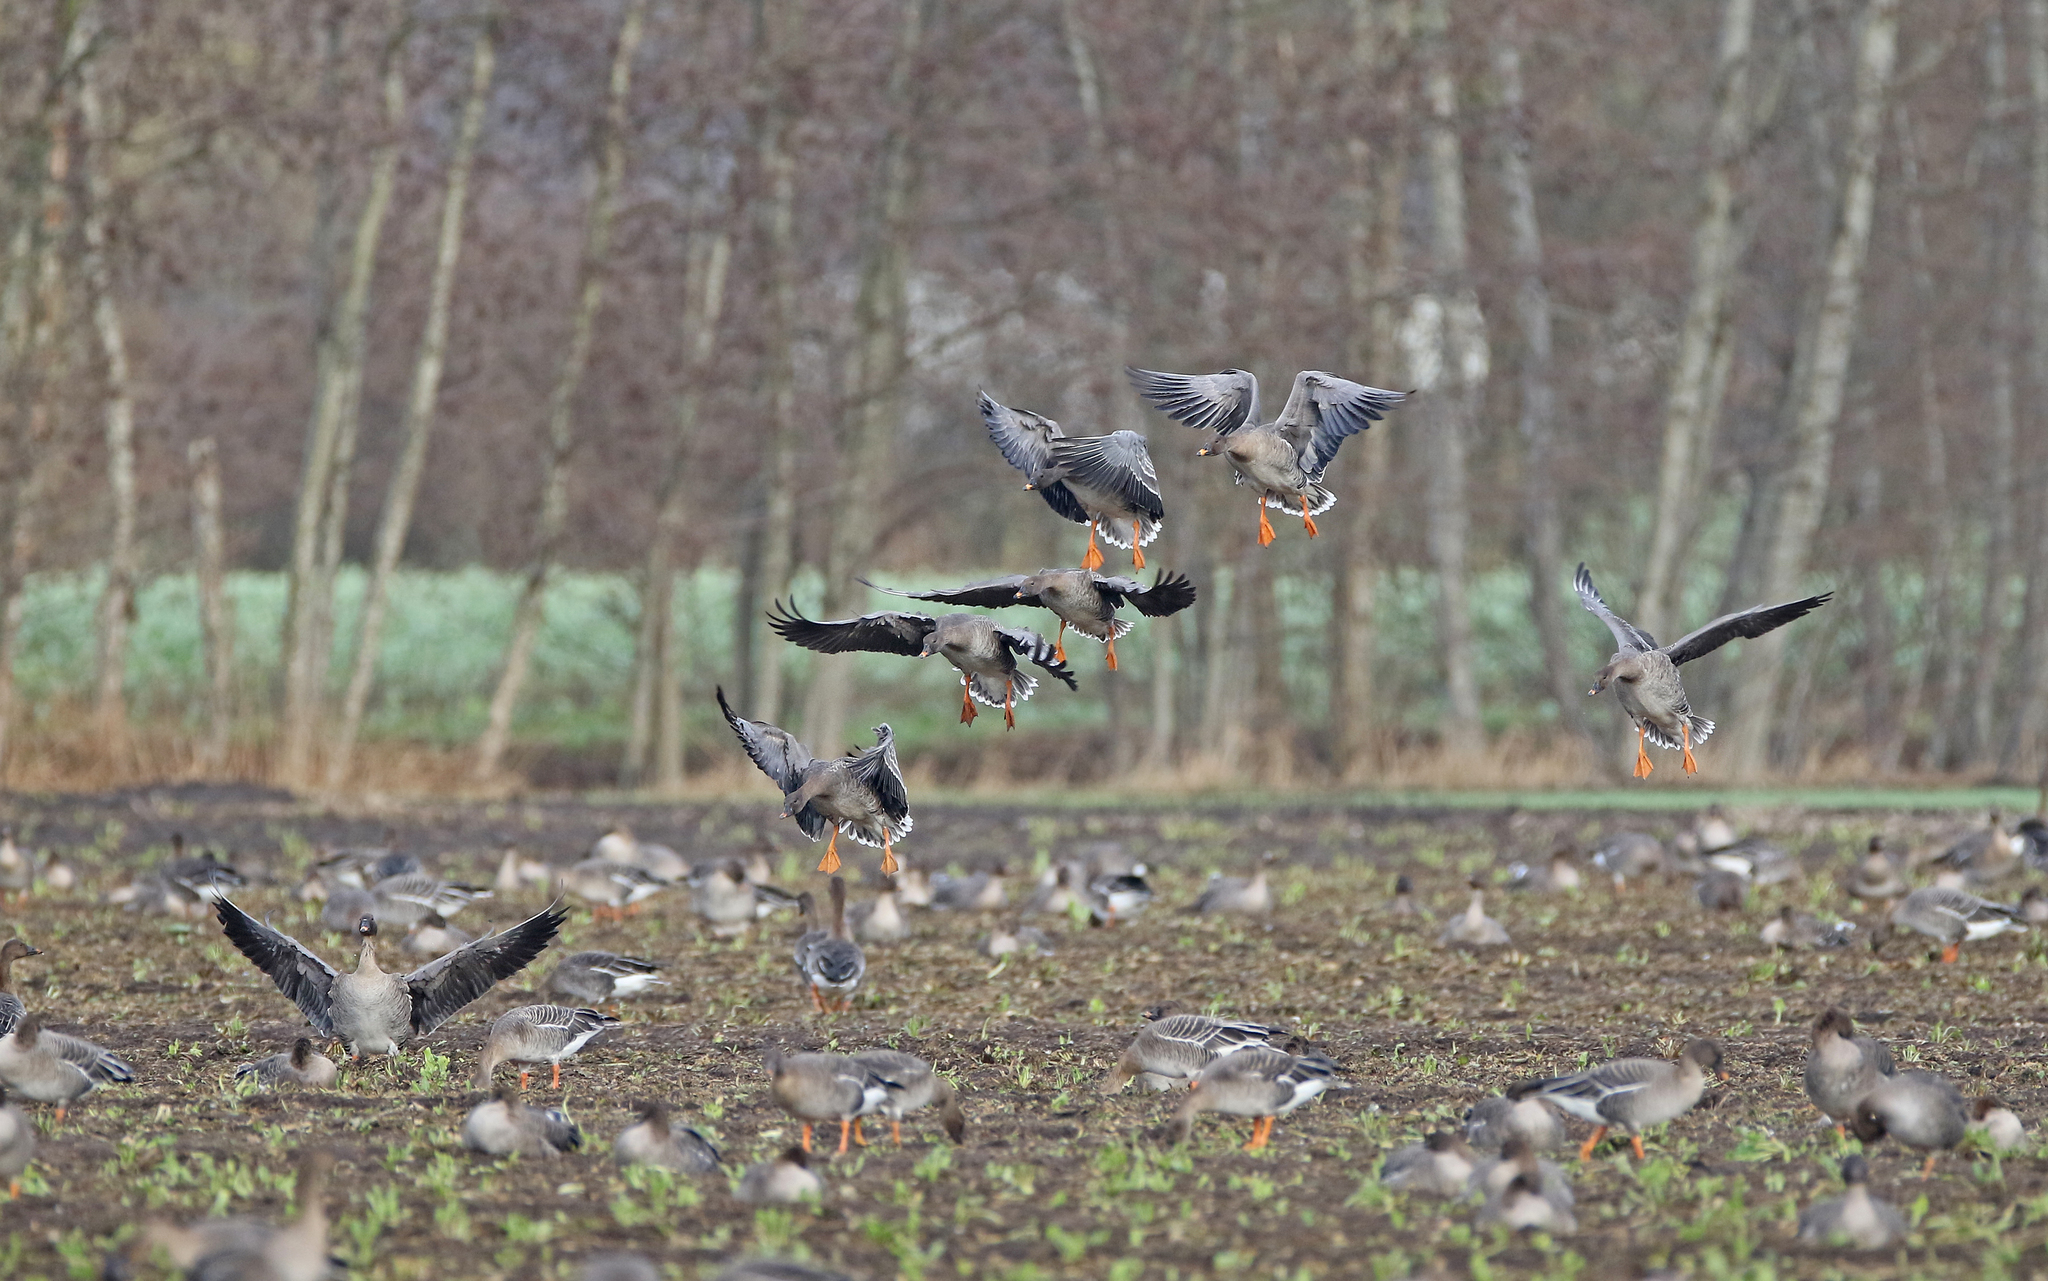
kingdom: Animalia
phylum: Chordata
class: Aves
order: Anseriformes
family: Anatidae
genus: Anser
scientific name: Anser serrirostris
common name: Tundra bean goose
